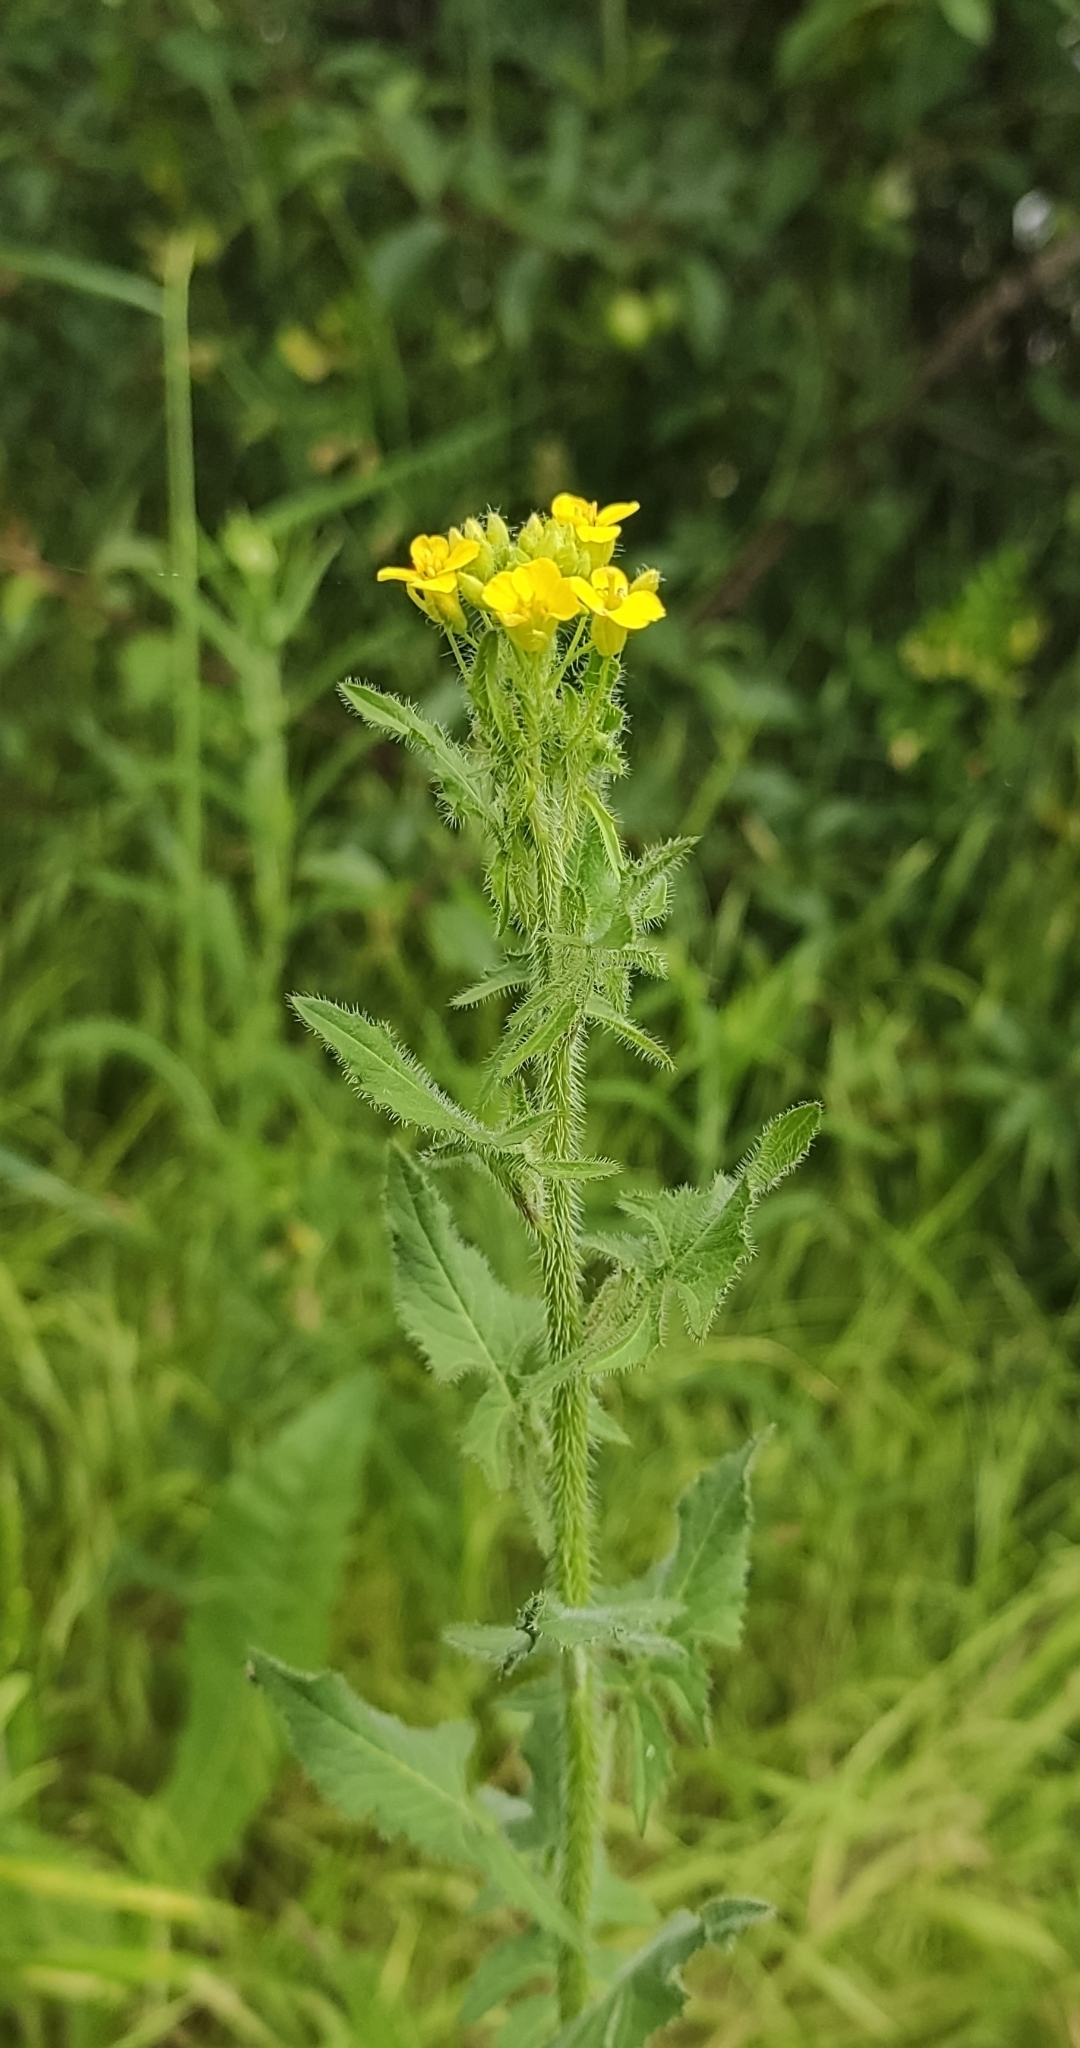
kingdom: Plantae
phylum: Tracheophyta
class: Magnoliopsida
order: Brassicales
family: Brassicaceae
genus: Sisymbrium
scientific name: Sisymbrium loeselii
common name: False london-rocket
